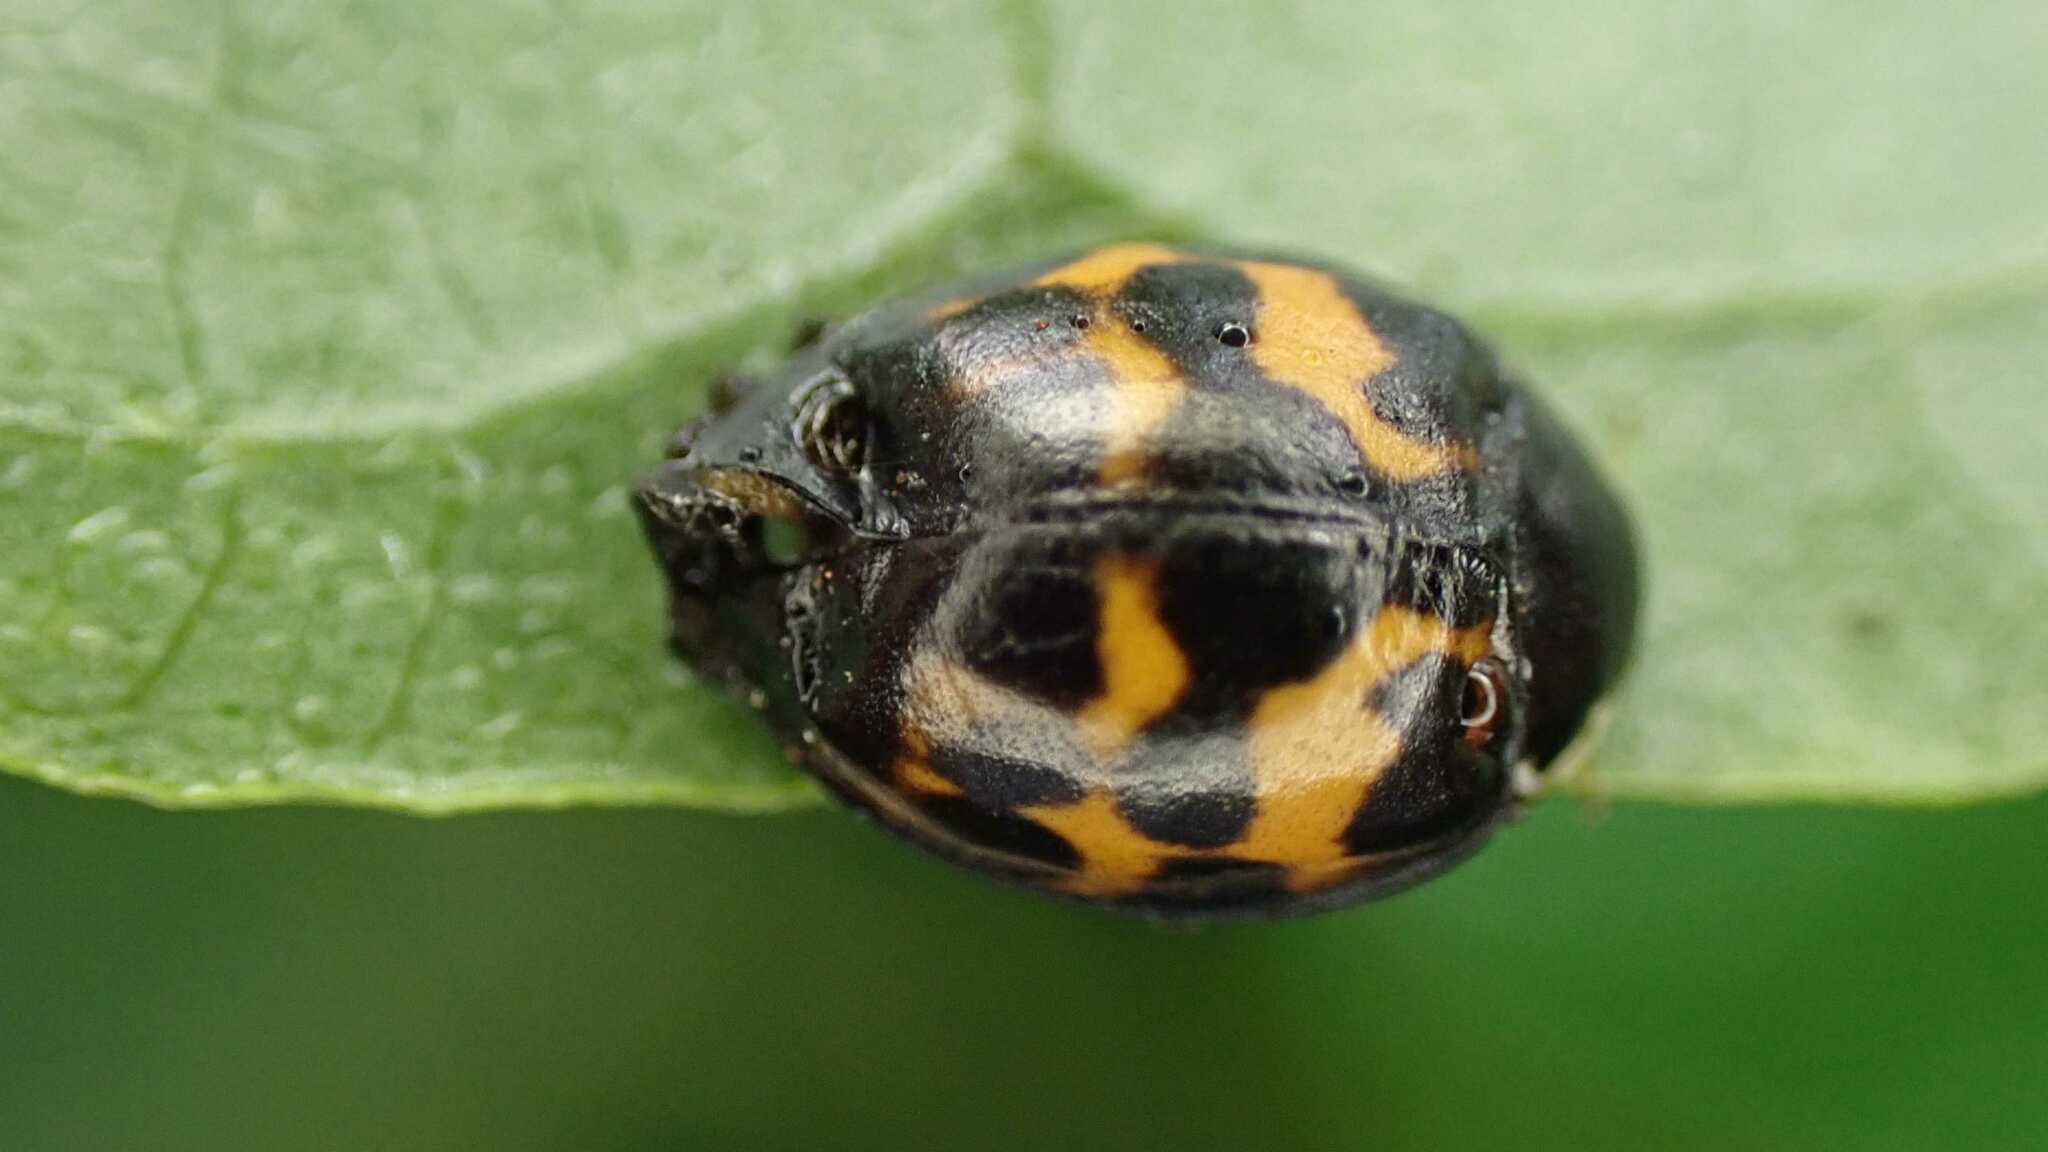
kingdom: Animalia
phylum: Arthropoda
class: Insecta
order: Coleoptera
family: Coccinellidae
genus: Harmonia
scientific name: Harmonia axyridis
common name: Harlequin ladybird
